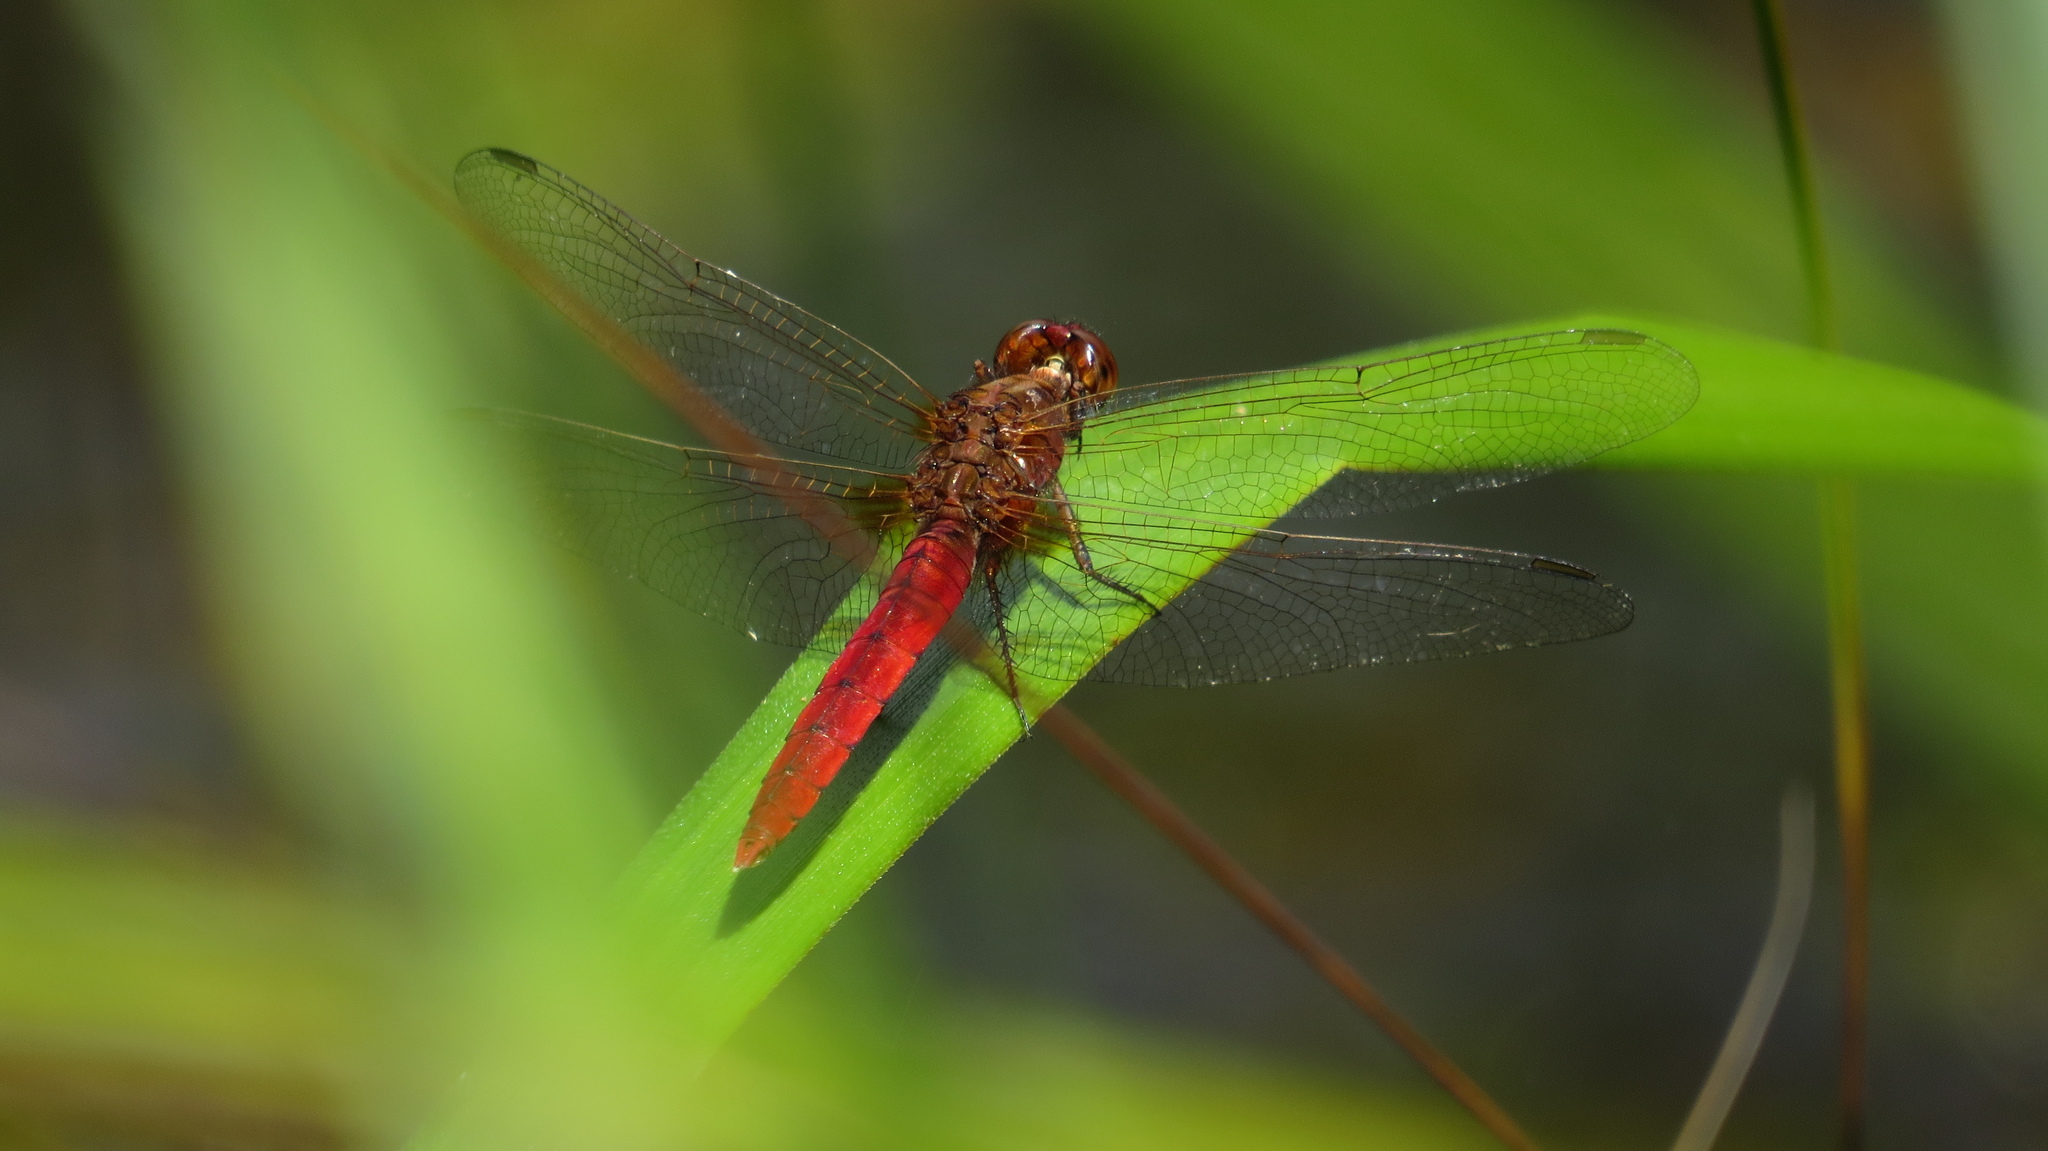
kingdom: Animalia
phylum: Arthropoda
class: Insecta
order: Odonata
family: Libellulidae
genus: Rhodothemis
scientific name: Rhodothemis lieftincki
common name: Red arrow
